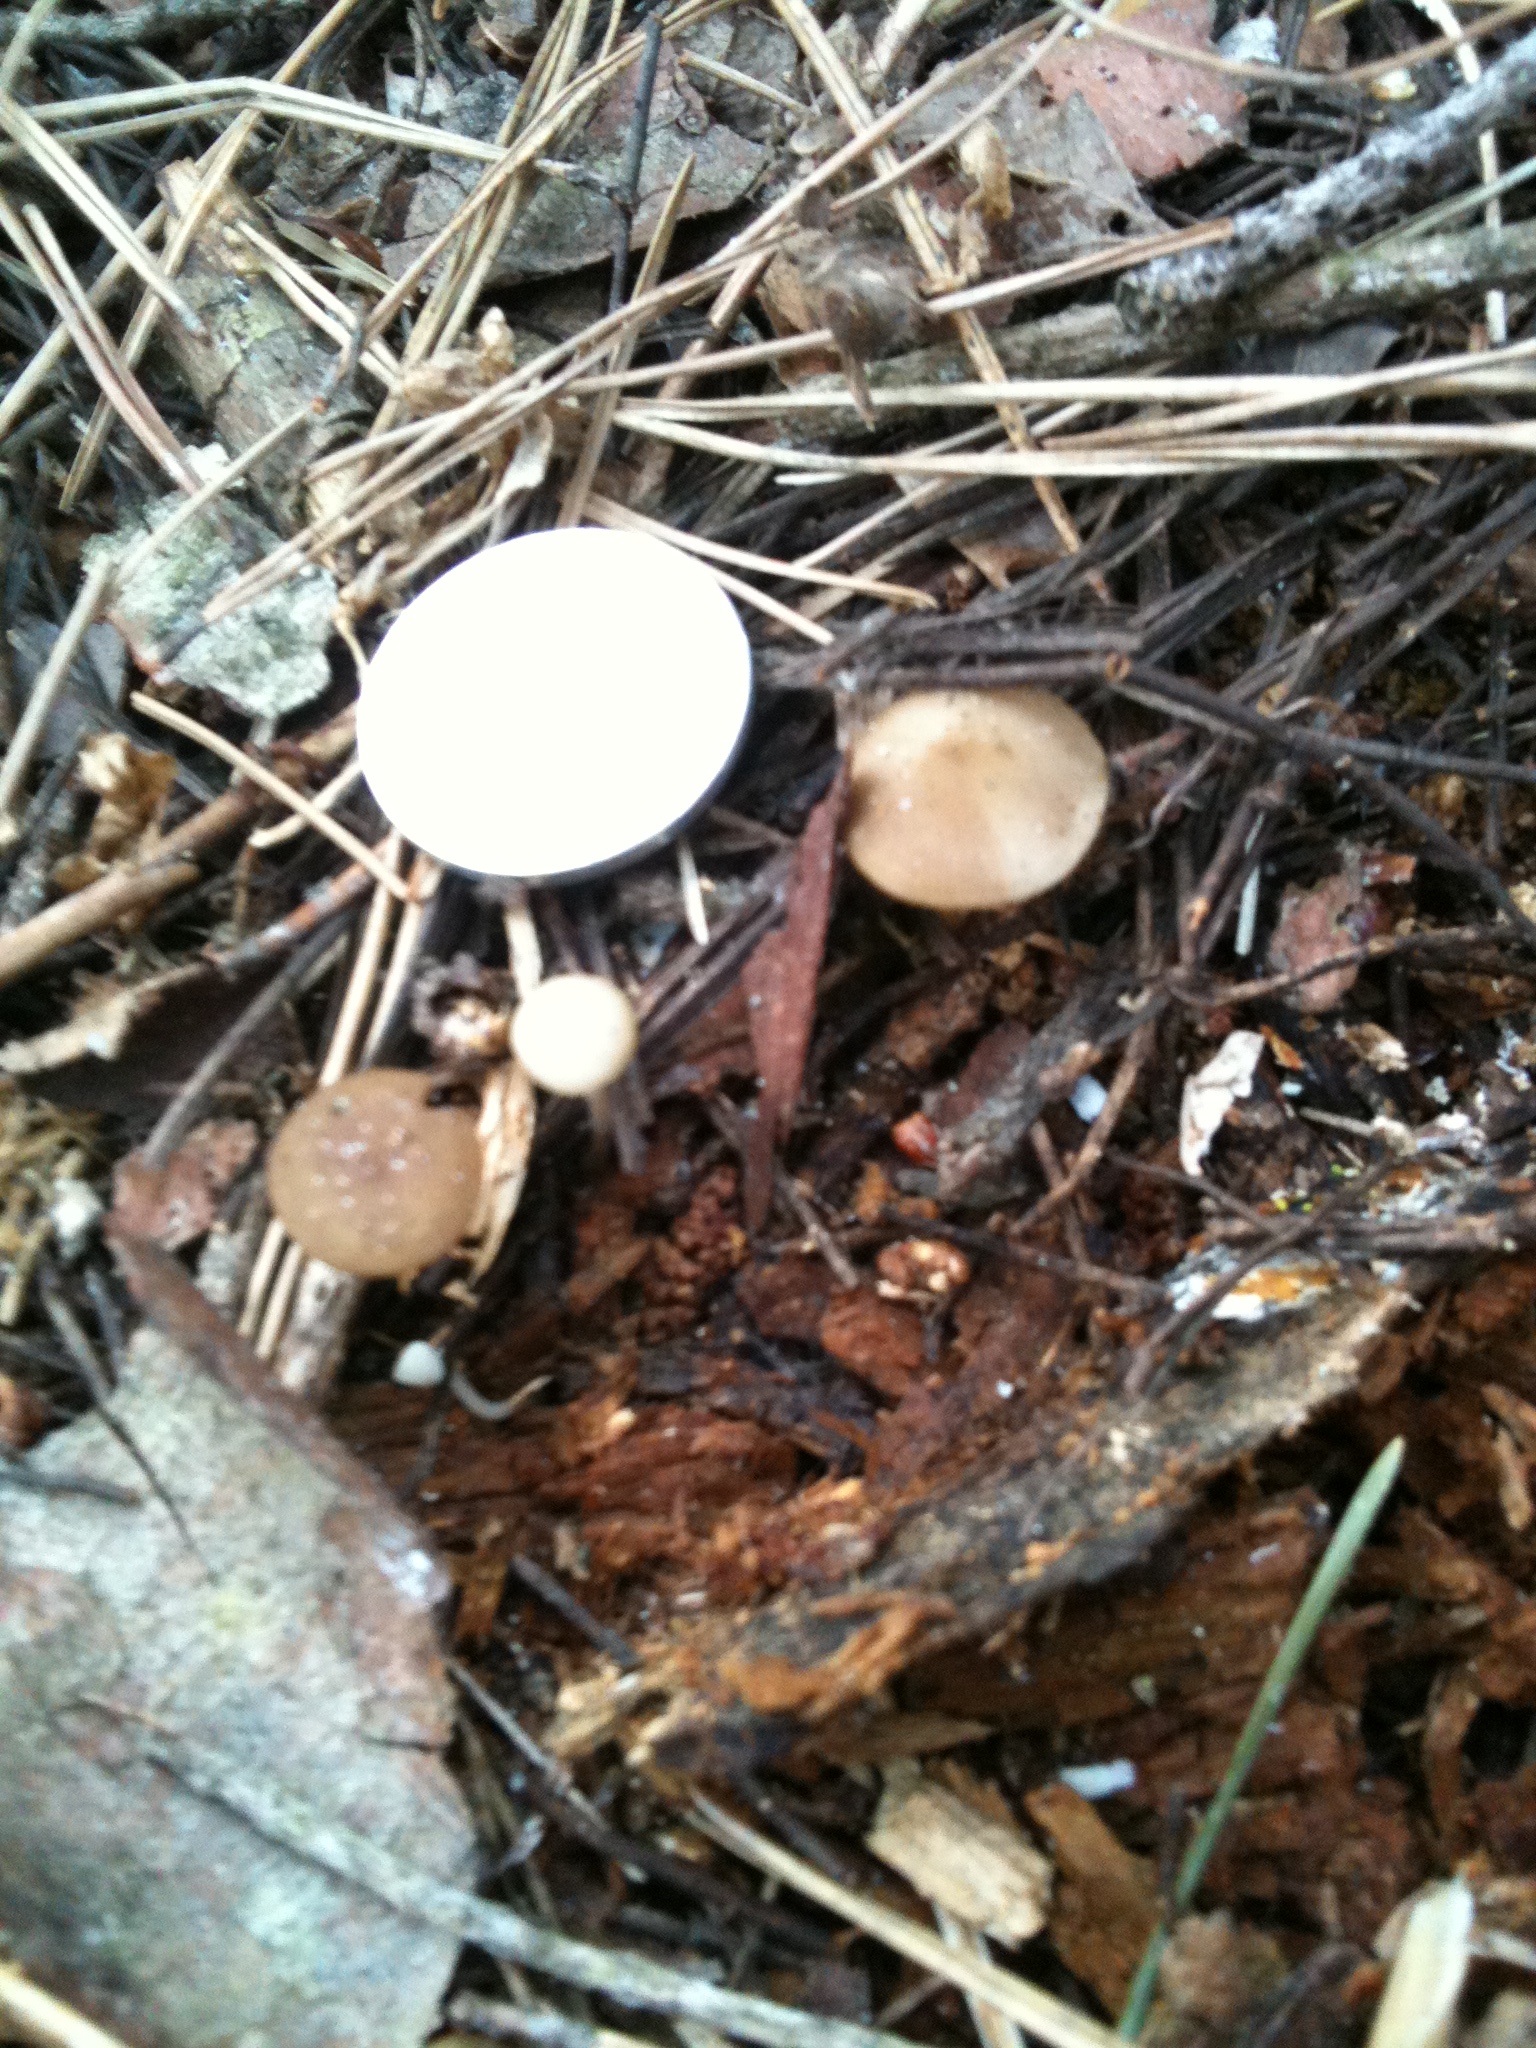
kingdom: Fungi
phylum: Basidiomycota
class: Agaricomycetes
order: Agaricales
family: Physalacriaceae
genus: Strobilurus
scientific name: Strobilurus stephanocystis
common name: Russian conecap
